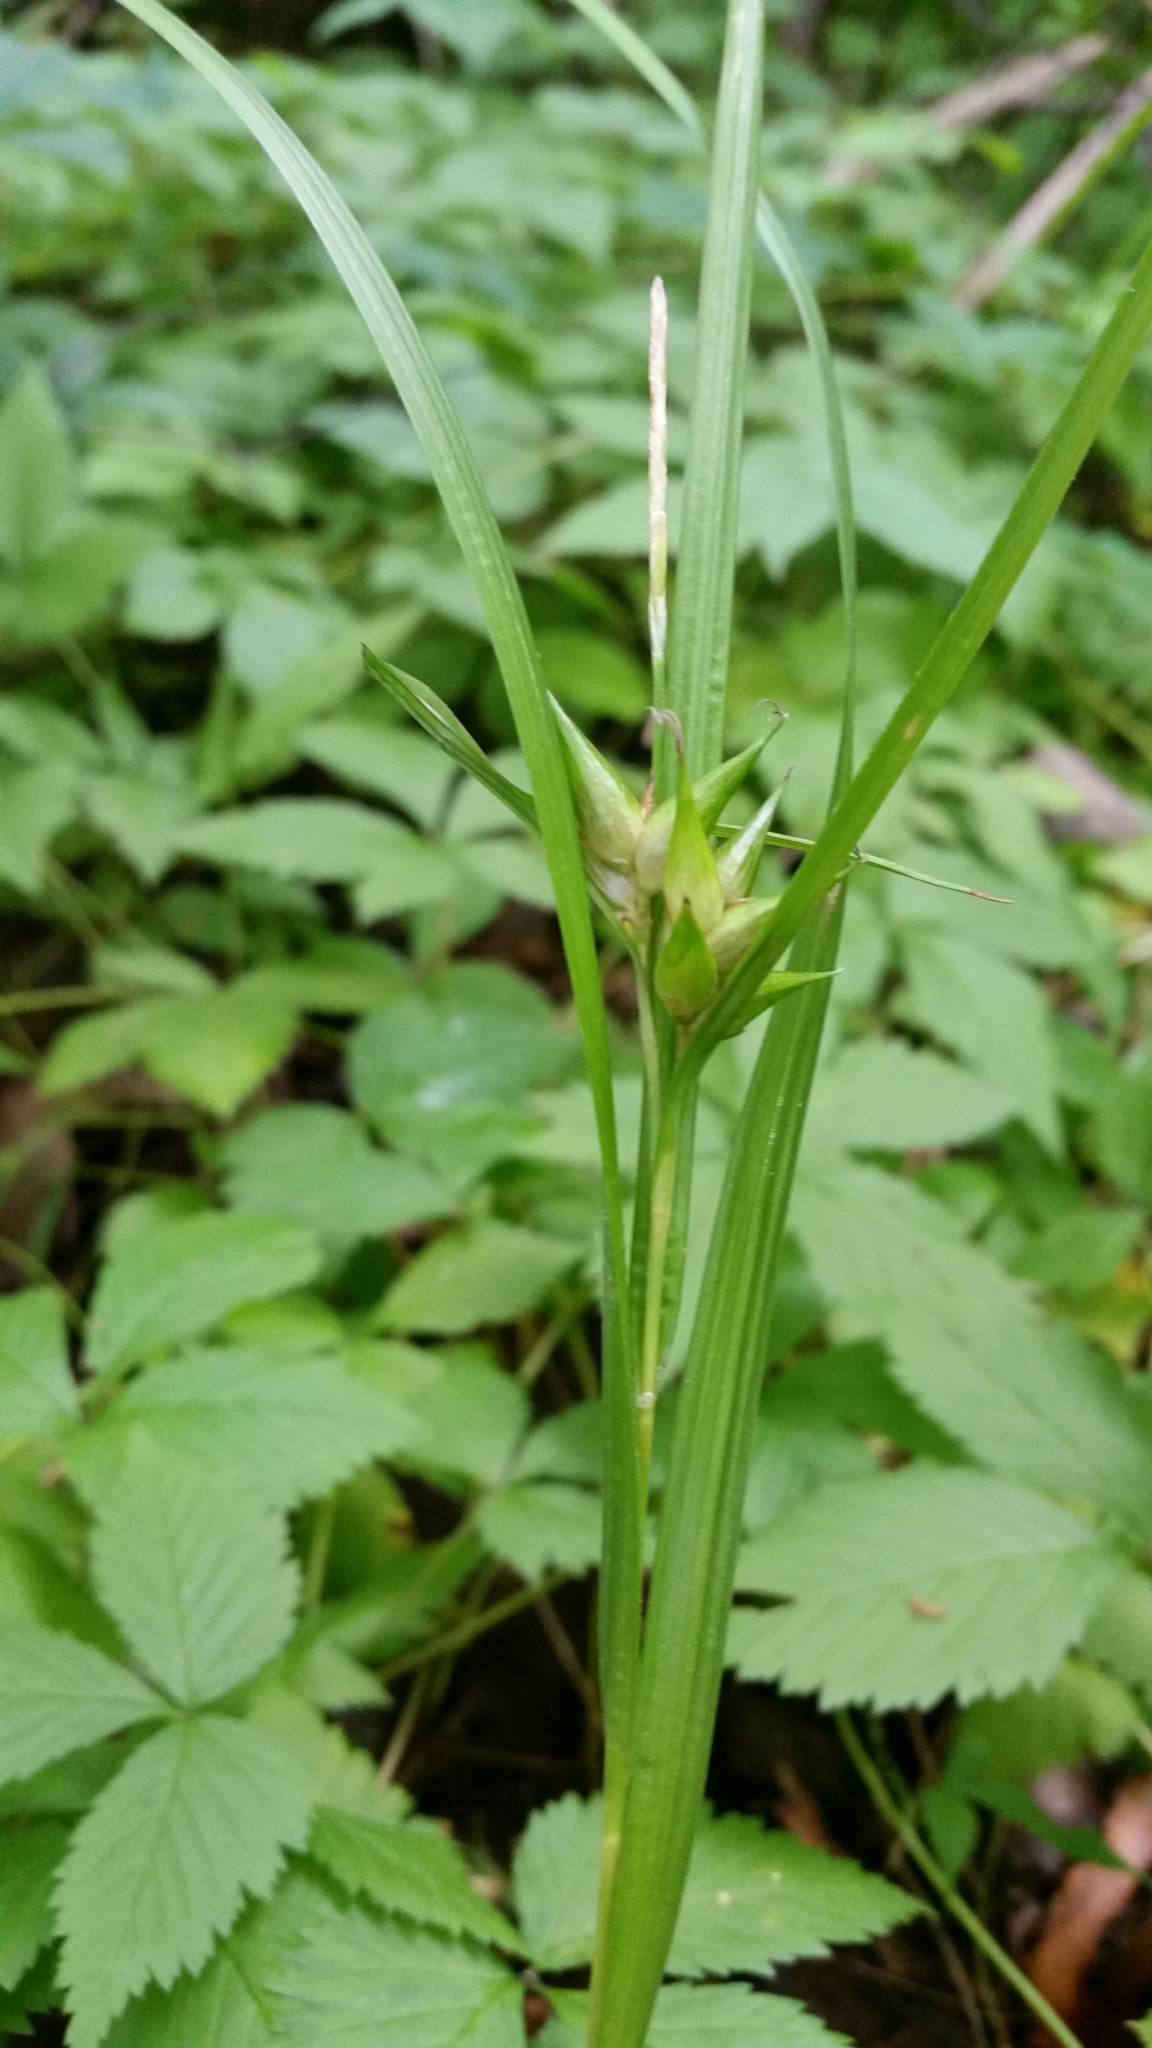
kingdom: Plantae
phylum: Tracheophyta
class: Liliopsida
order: Poales
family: Cyperaceae
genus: Carex
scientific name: Carex intumescens
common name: Greater bladder sedge
